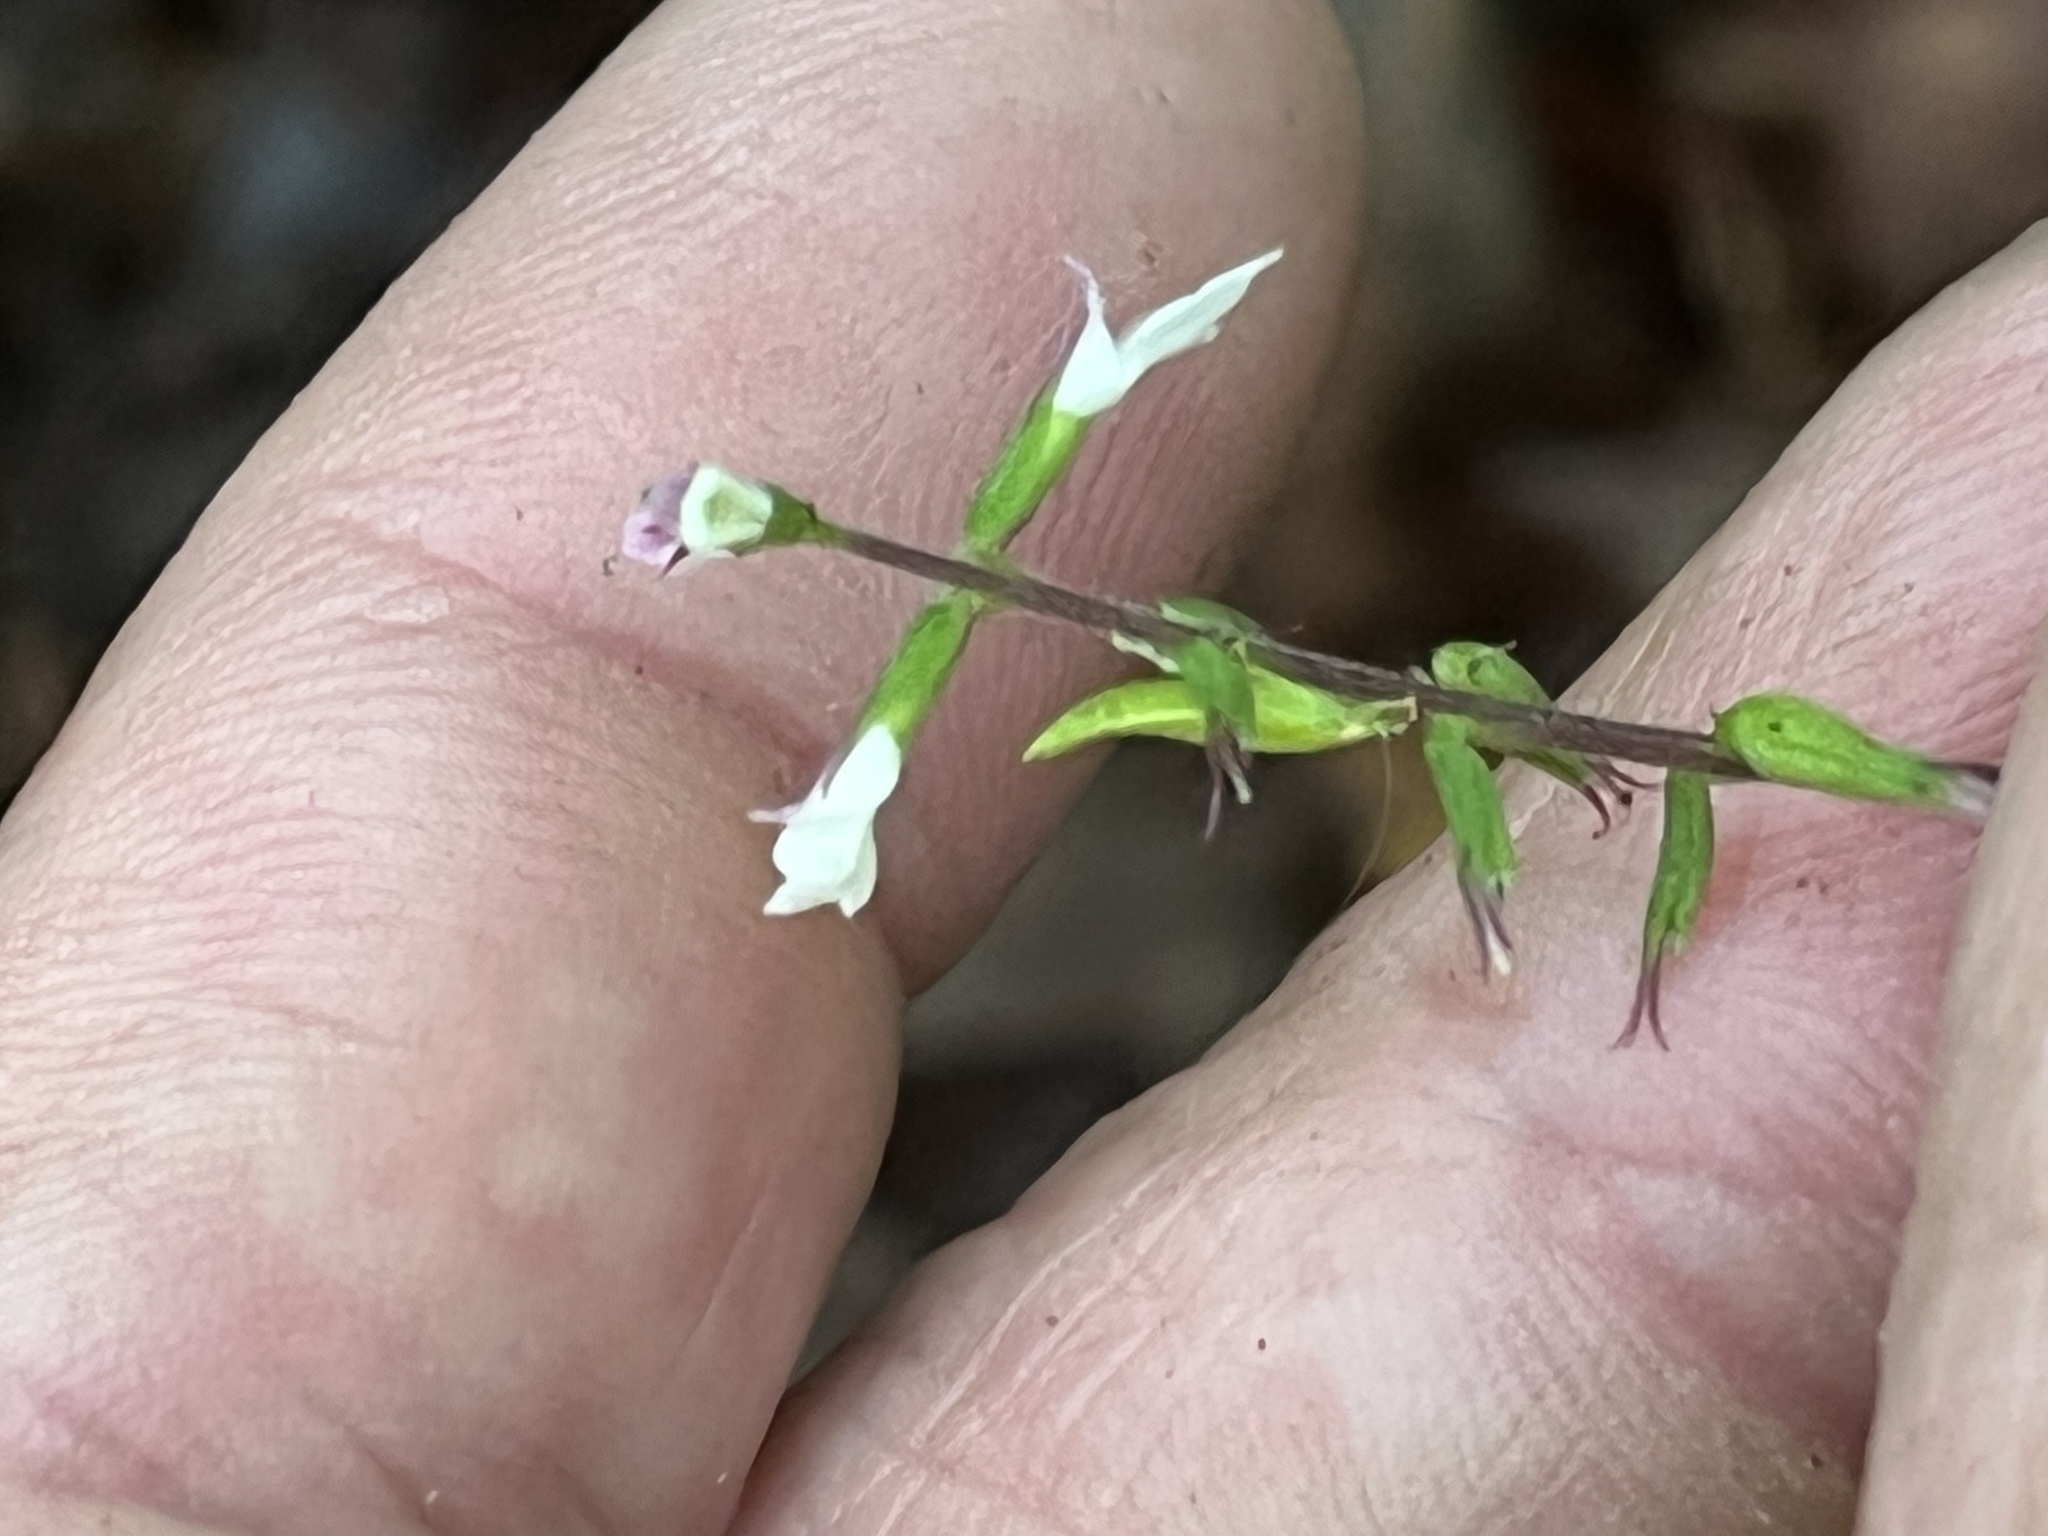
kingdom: Plantae
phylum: Tracheophyta
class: Magnoliopsida
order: Lamiales
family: Phrymaceae
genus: Phryma
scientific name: Phryma leptostachya
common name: American lopseed
